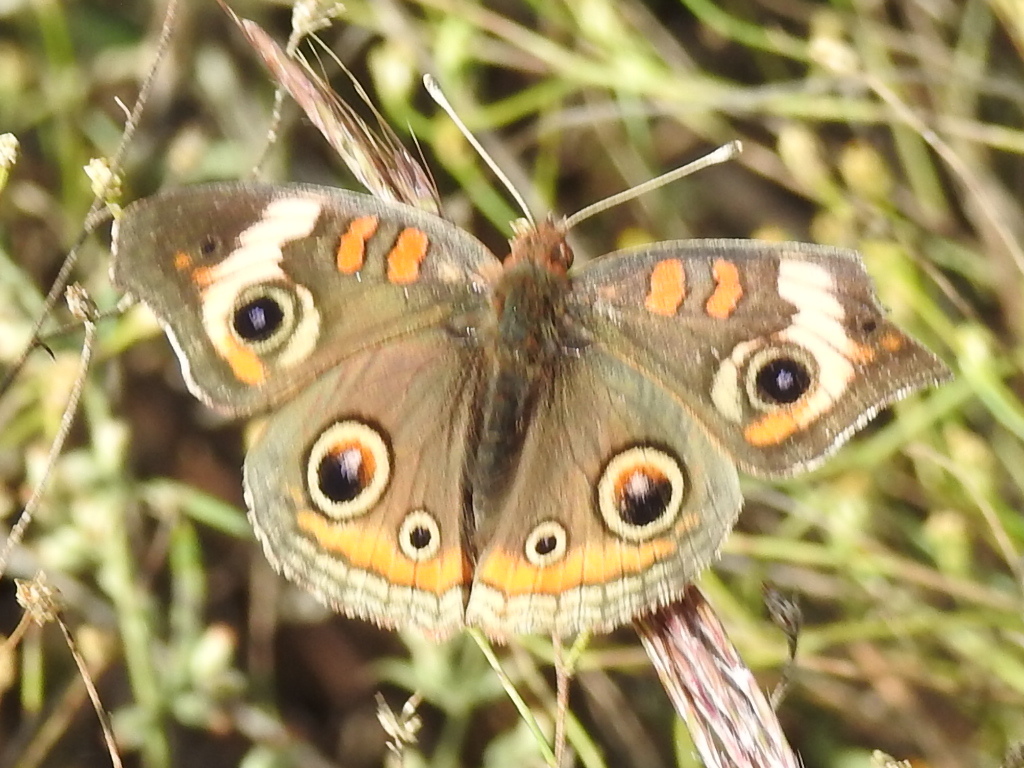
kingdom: Animalia
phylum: Arthropoda
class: Insecta
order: Lepidoptera
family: Nymphalidae
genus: Junonia
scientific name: Junonia coenia
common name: Common buckeye
